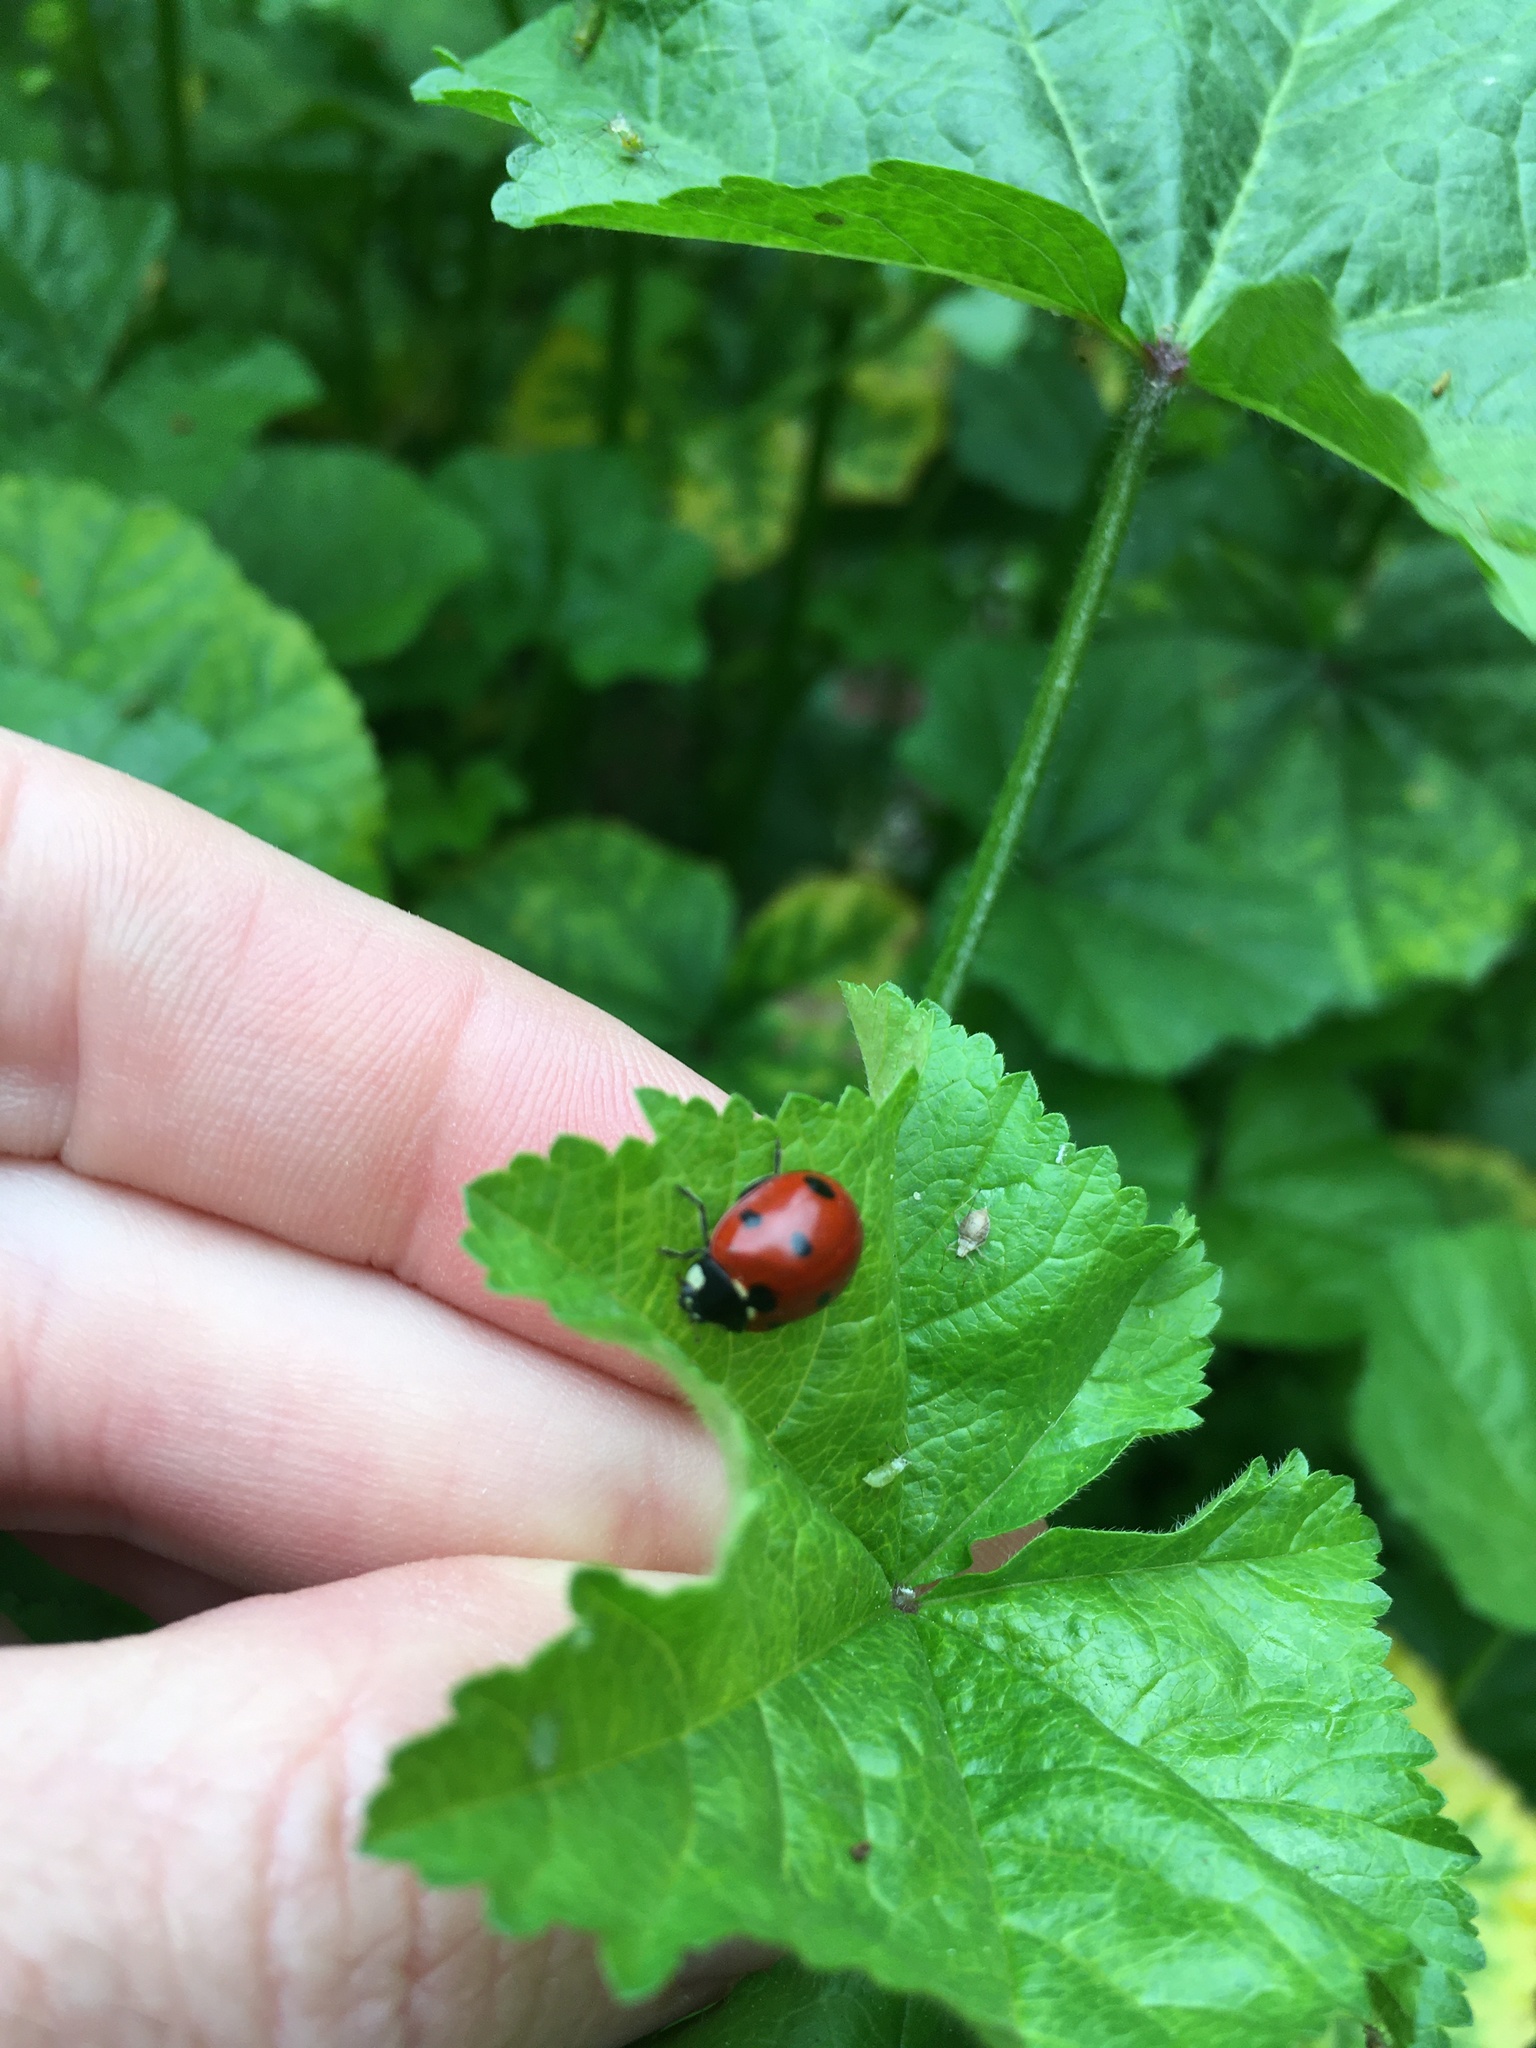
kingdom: Animalia
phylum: Arthropoda
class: Insecta
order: Coleoptera
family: Coccinellidae
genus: Coccinella
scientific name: Coccinella septempunctata
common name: Sevenspotted lady beetle
